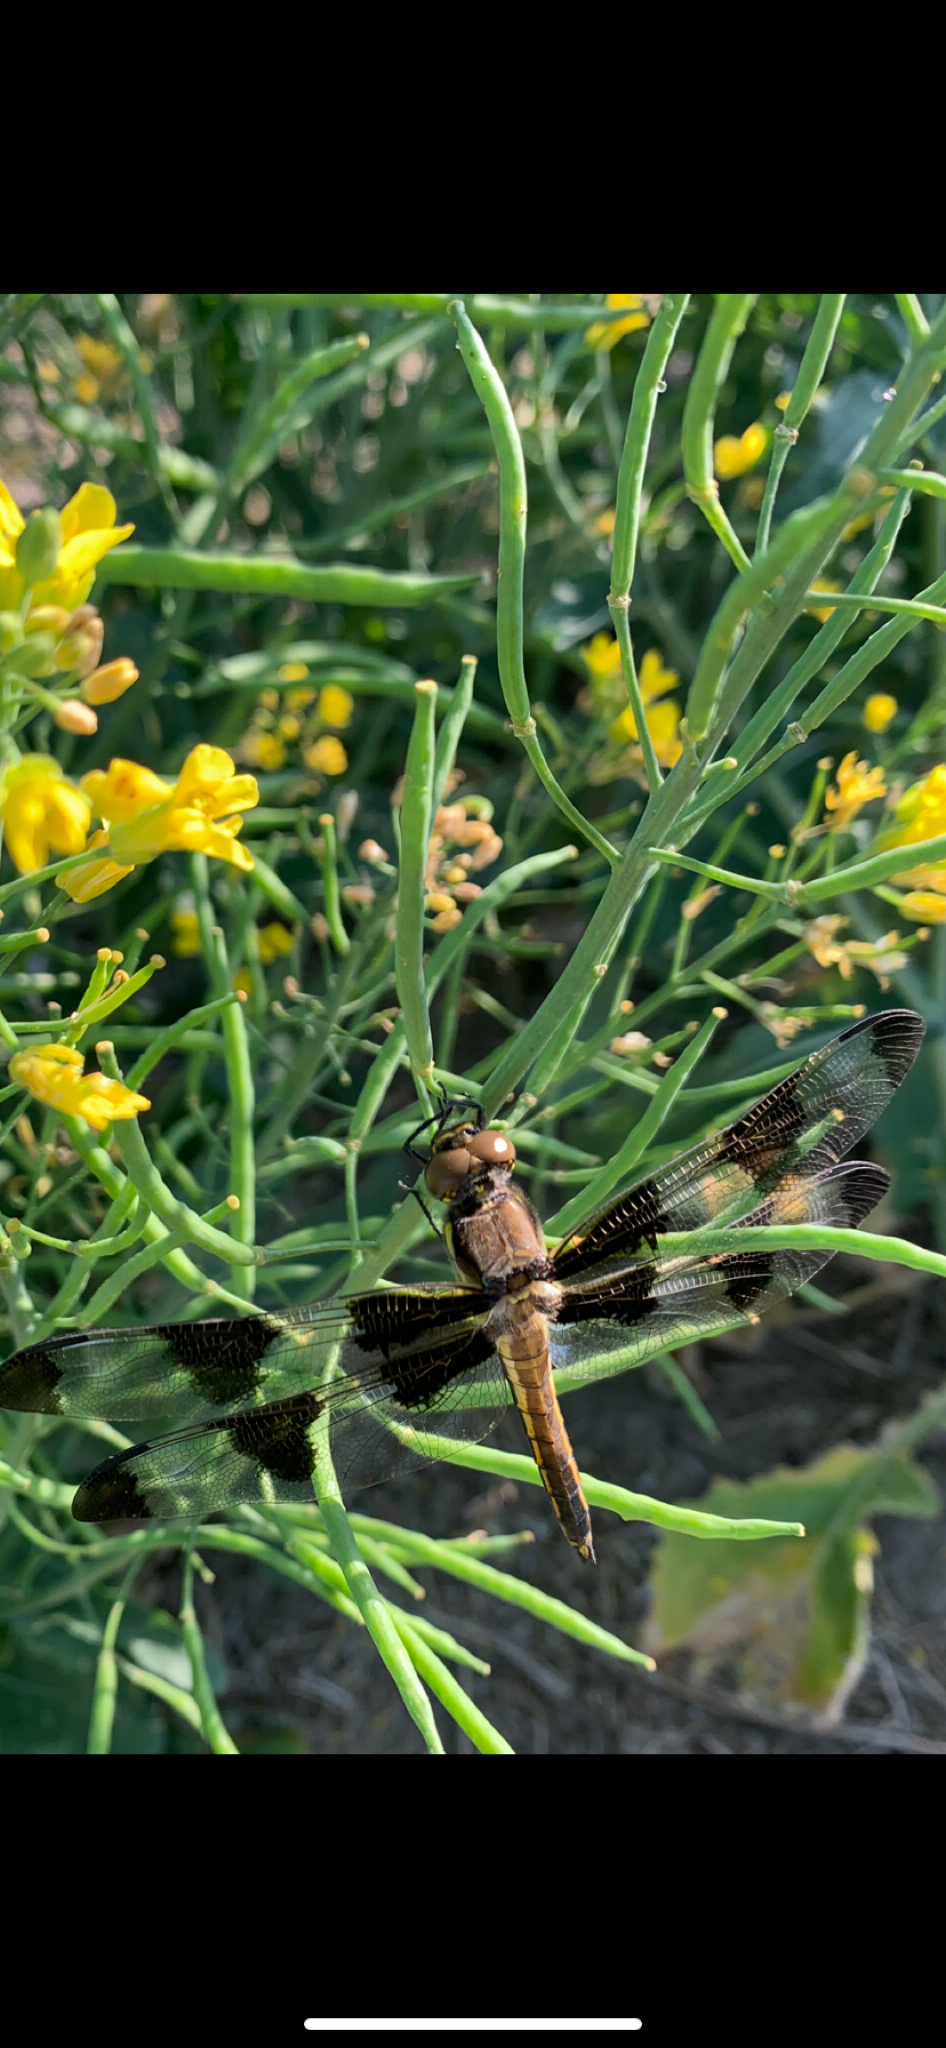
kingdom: Animalia
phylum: Arthropoda
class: Insecta
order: Odonata
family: Libellulidae
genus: Libellula
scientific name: Libellula pulchella
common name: Twelve-spotted skimmer
